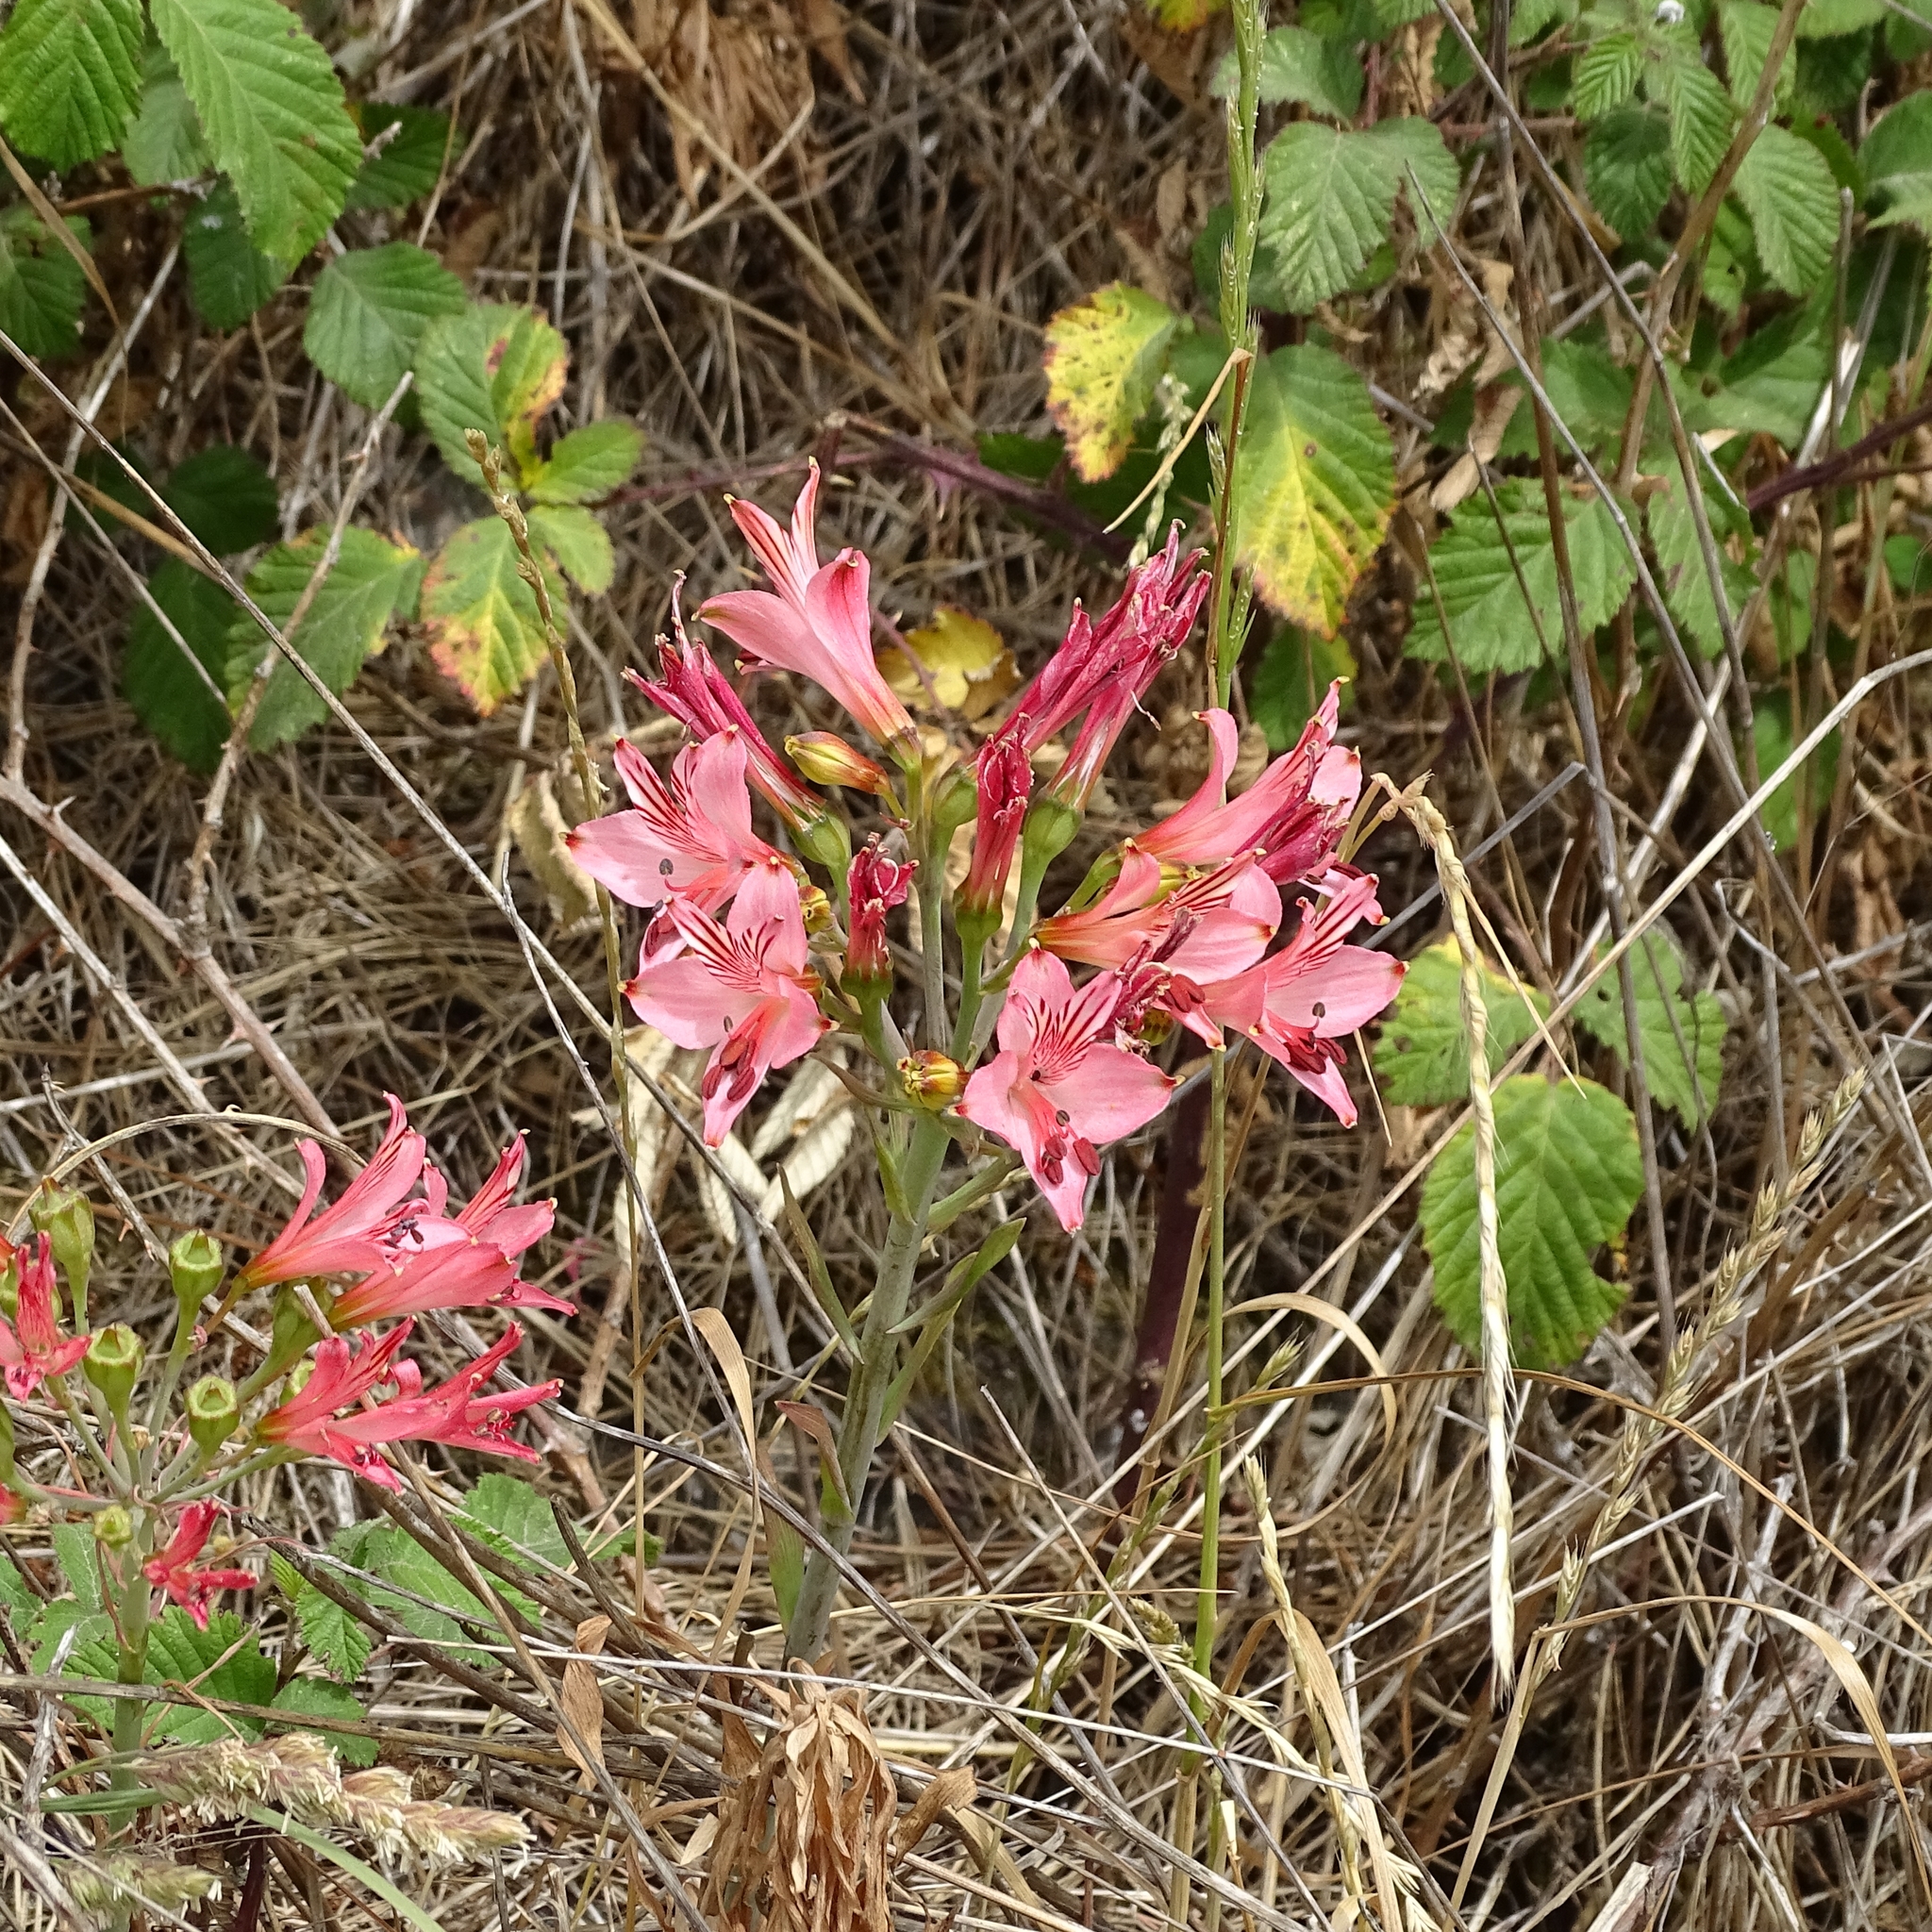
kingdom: Plantae
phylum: Tracheophyta
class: Liliopsida
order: Liliales
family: Alstroemeriaceae
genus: Alstroemeria
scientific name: Alstroemeria ligtu
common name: St. martin's-flower
